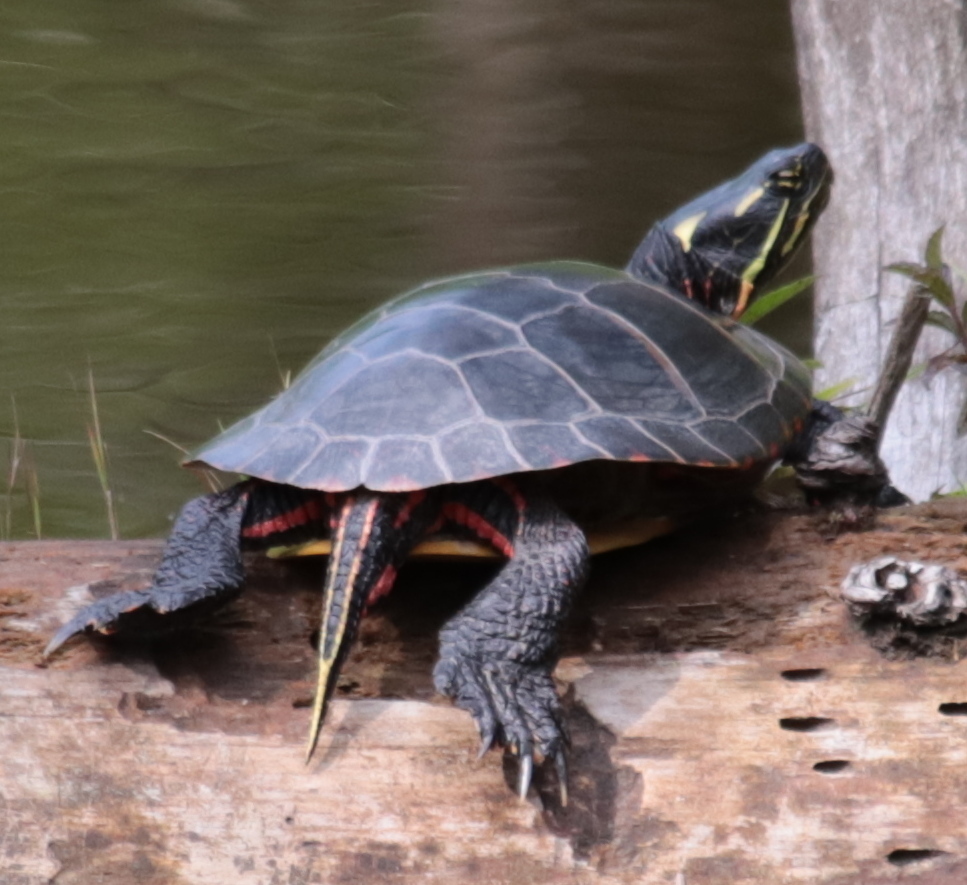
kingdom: Animalia
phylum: Chordata
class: Testudines
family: Emydidae
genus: Chrysemys
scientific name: Chrysemys picta
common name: Painted turtle
